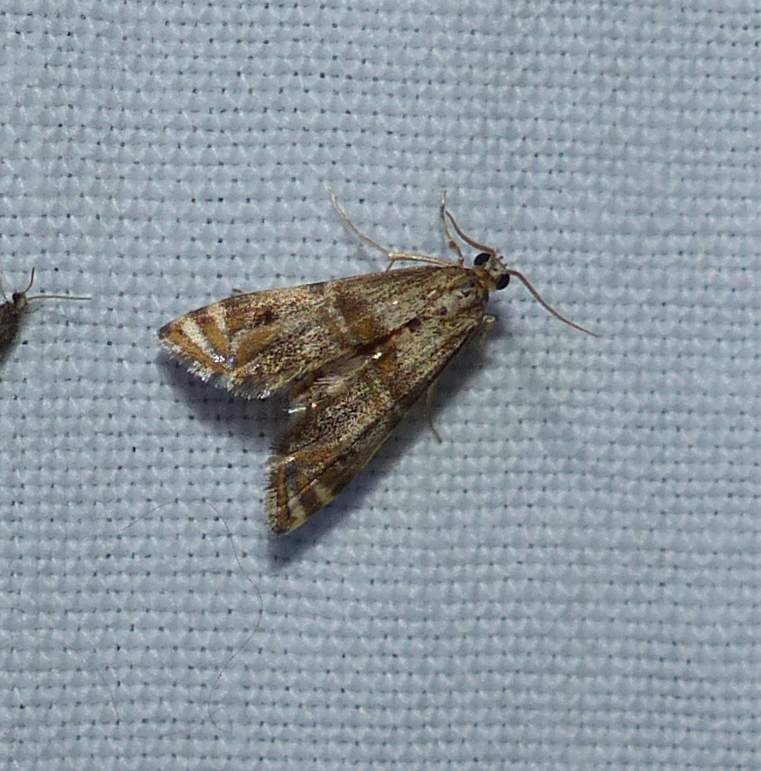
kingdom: Animalia
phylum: Arthropoda
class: Insecta
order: Lepidoptera
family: Crambidae
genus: Petrophila
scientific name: Petrophila bifascialis
